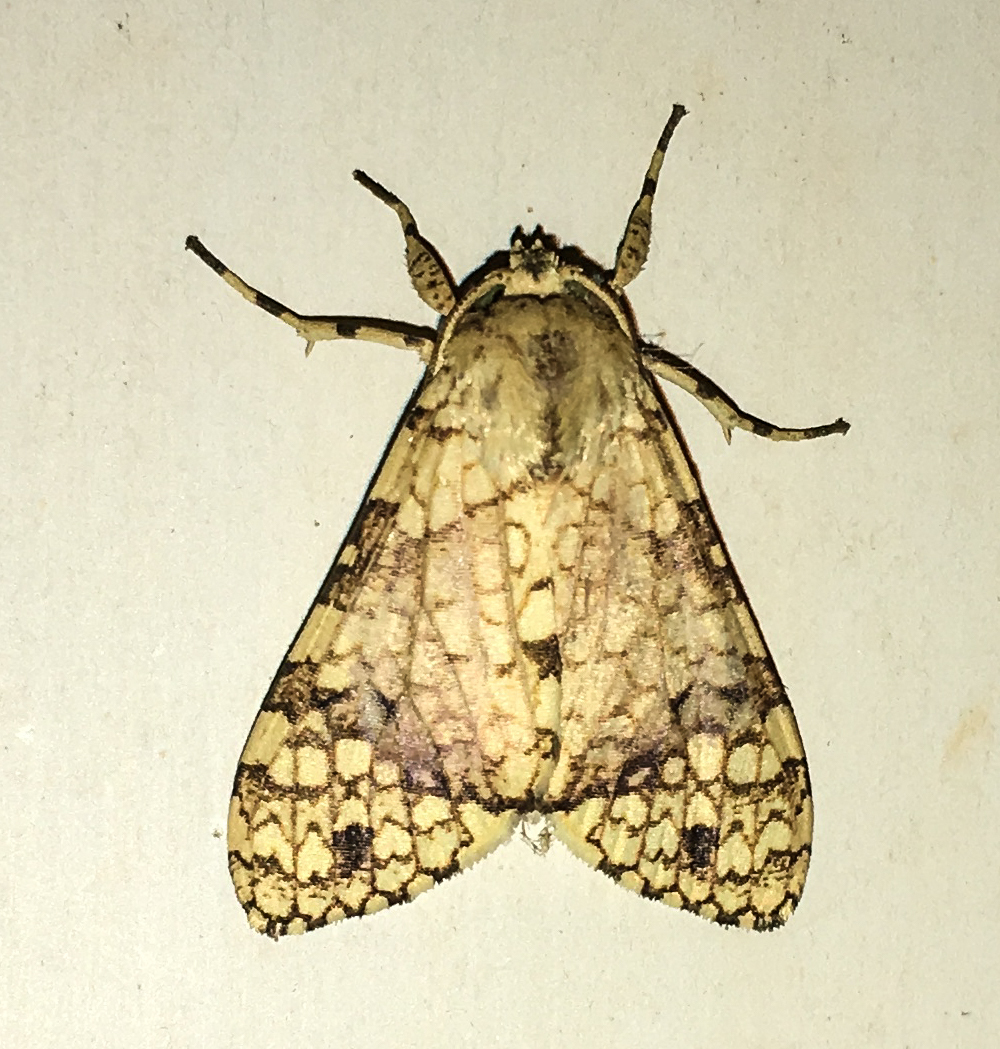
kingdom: Animalia
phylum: Arthropoda
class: Insecta
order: Lepidoptera
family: Erebidae
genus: Tessella
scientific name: Tessella flavescens
